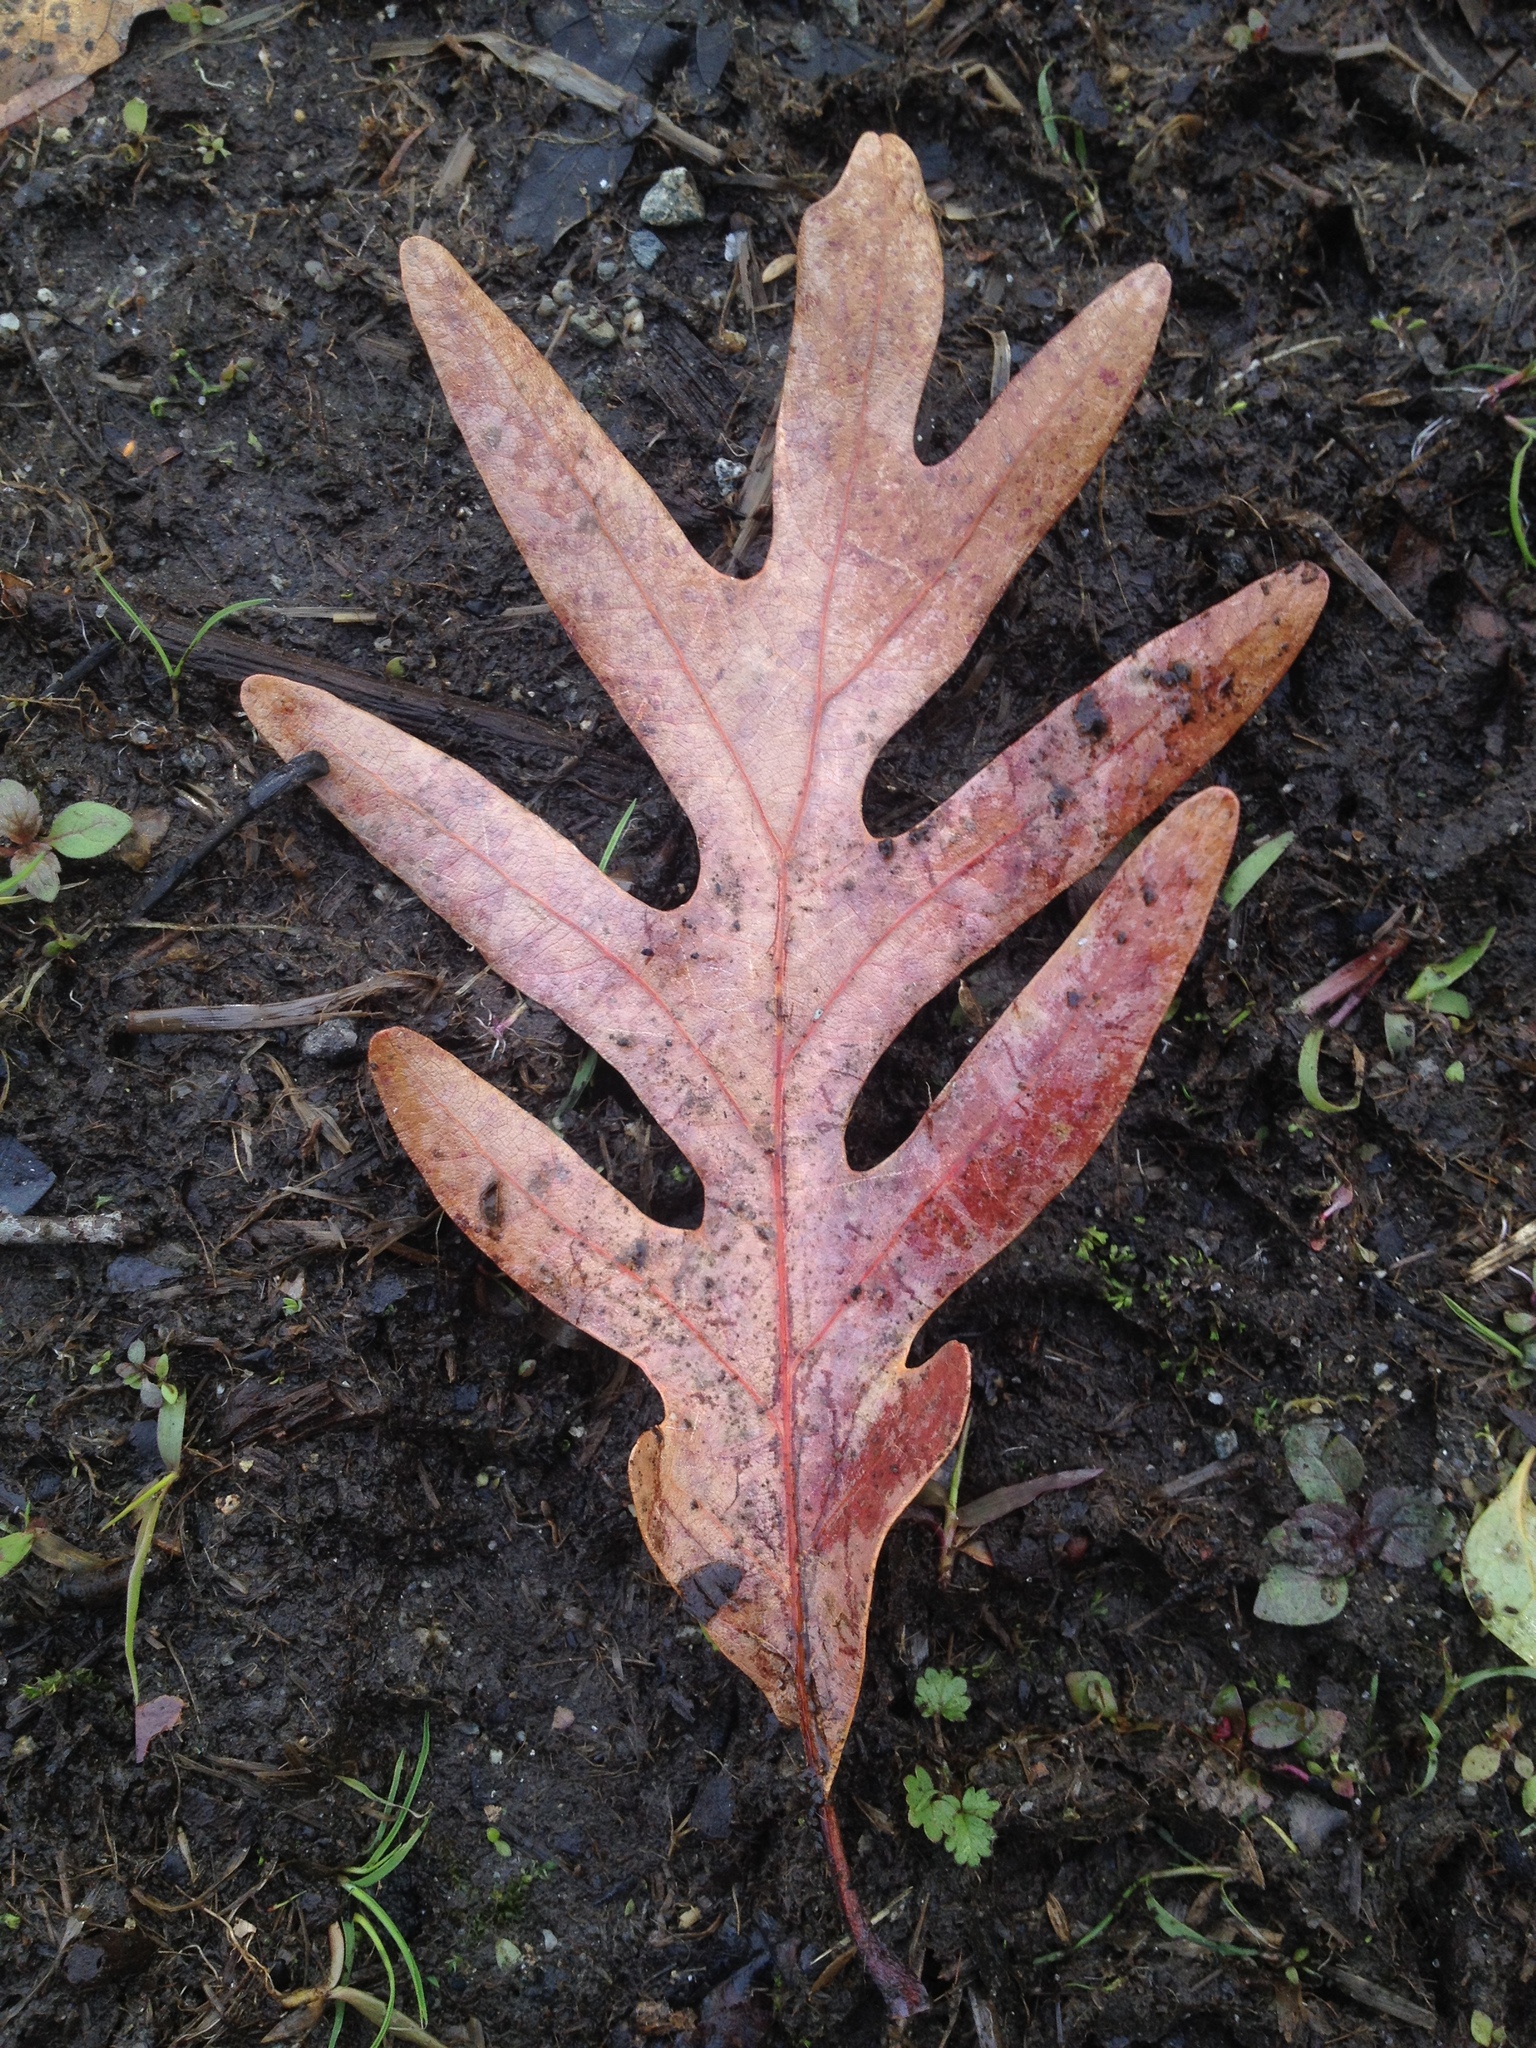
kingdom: Plantae
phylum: Tracheophyta
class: Magnoliopsida
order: Fagales
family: Fagaceae
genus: Quercus
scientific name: Quercus alba
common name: White oak
